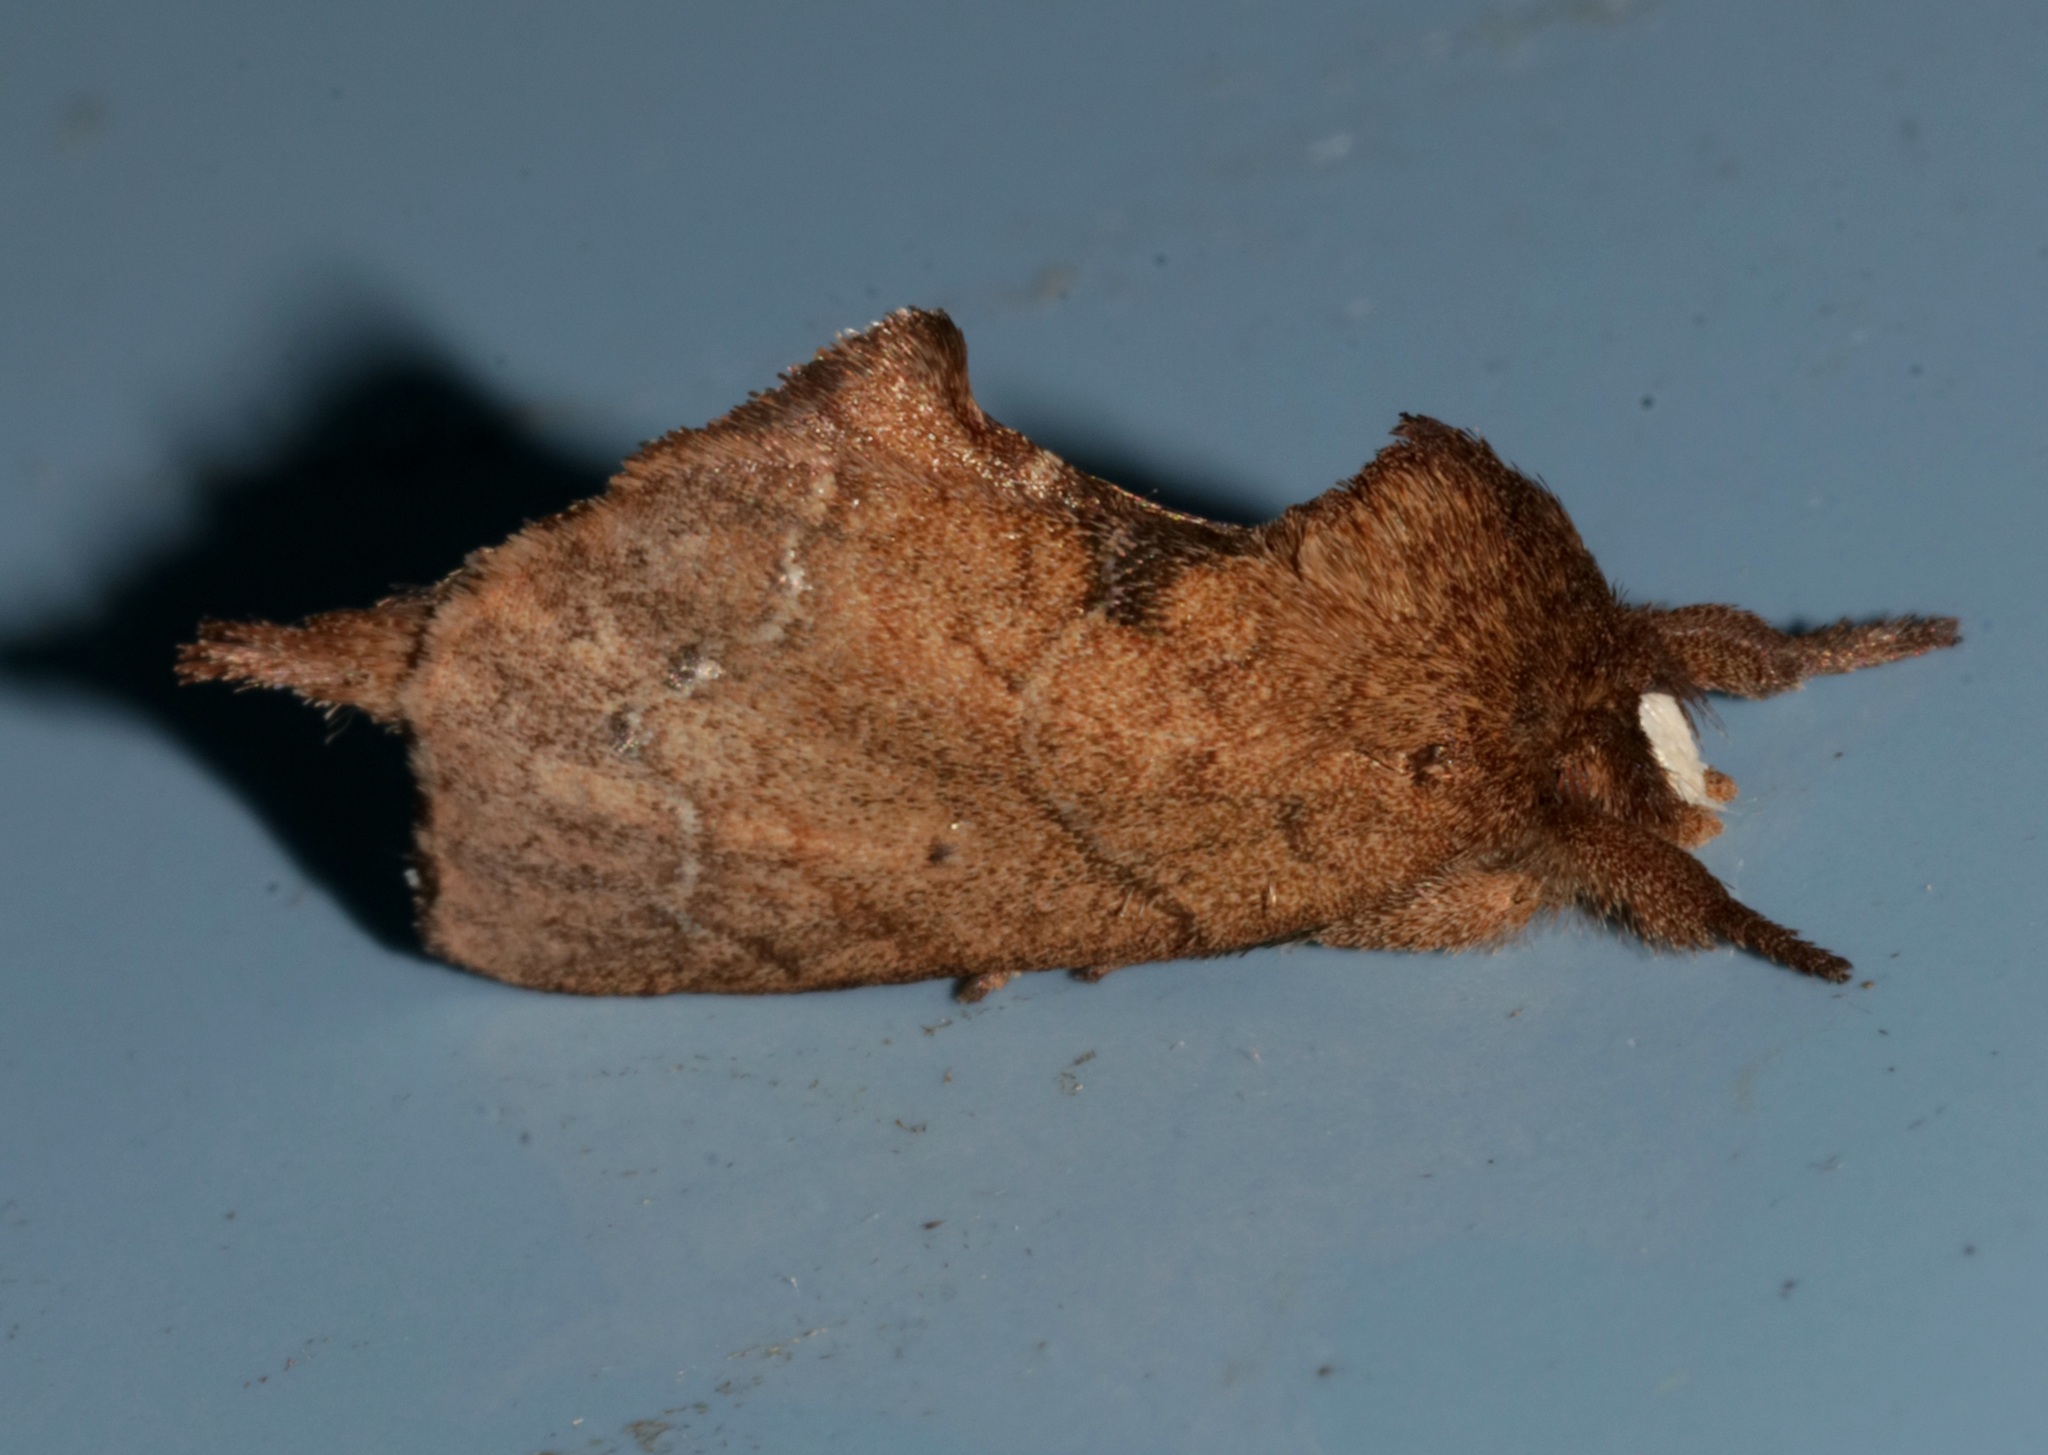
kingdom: Animalia
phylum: Arthropoda
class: Insecta
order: Lepidoptera
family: Notodontidae
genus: Micromelalopha
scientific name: Micromelalopha albifrons
